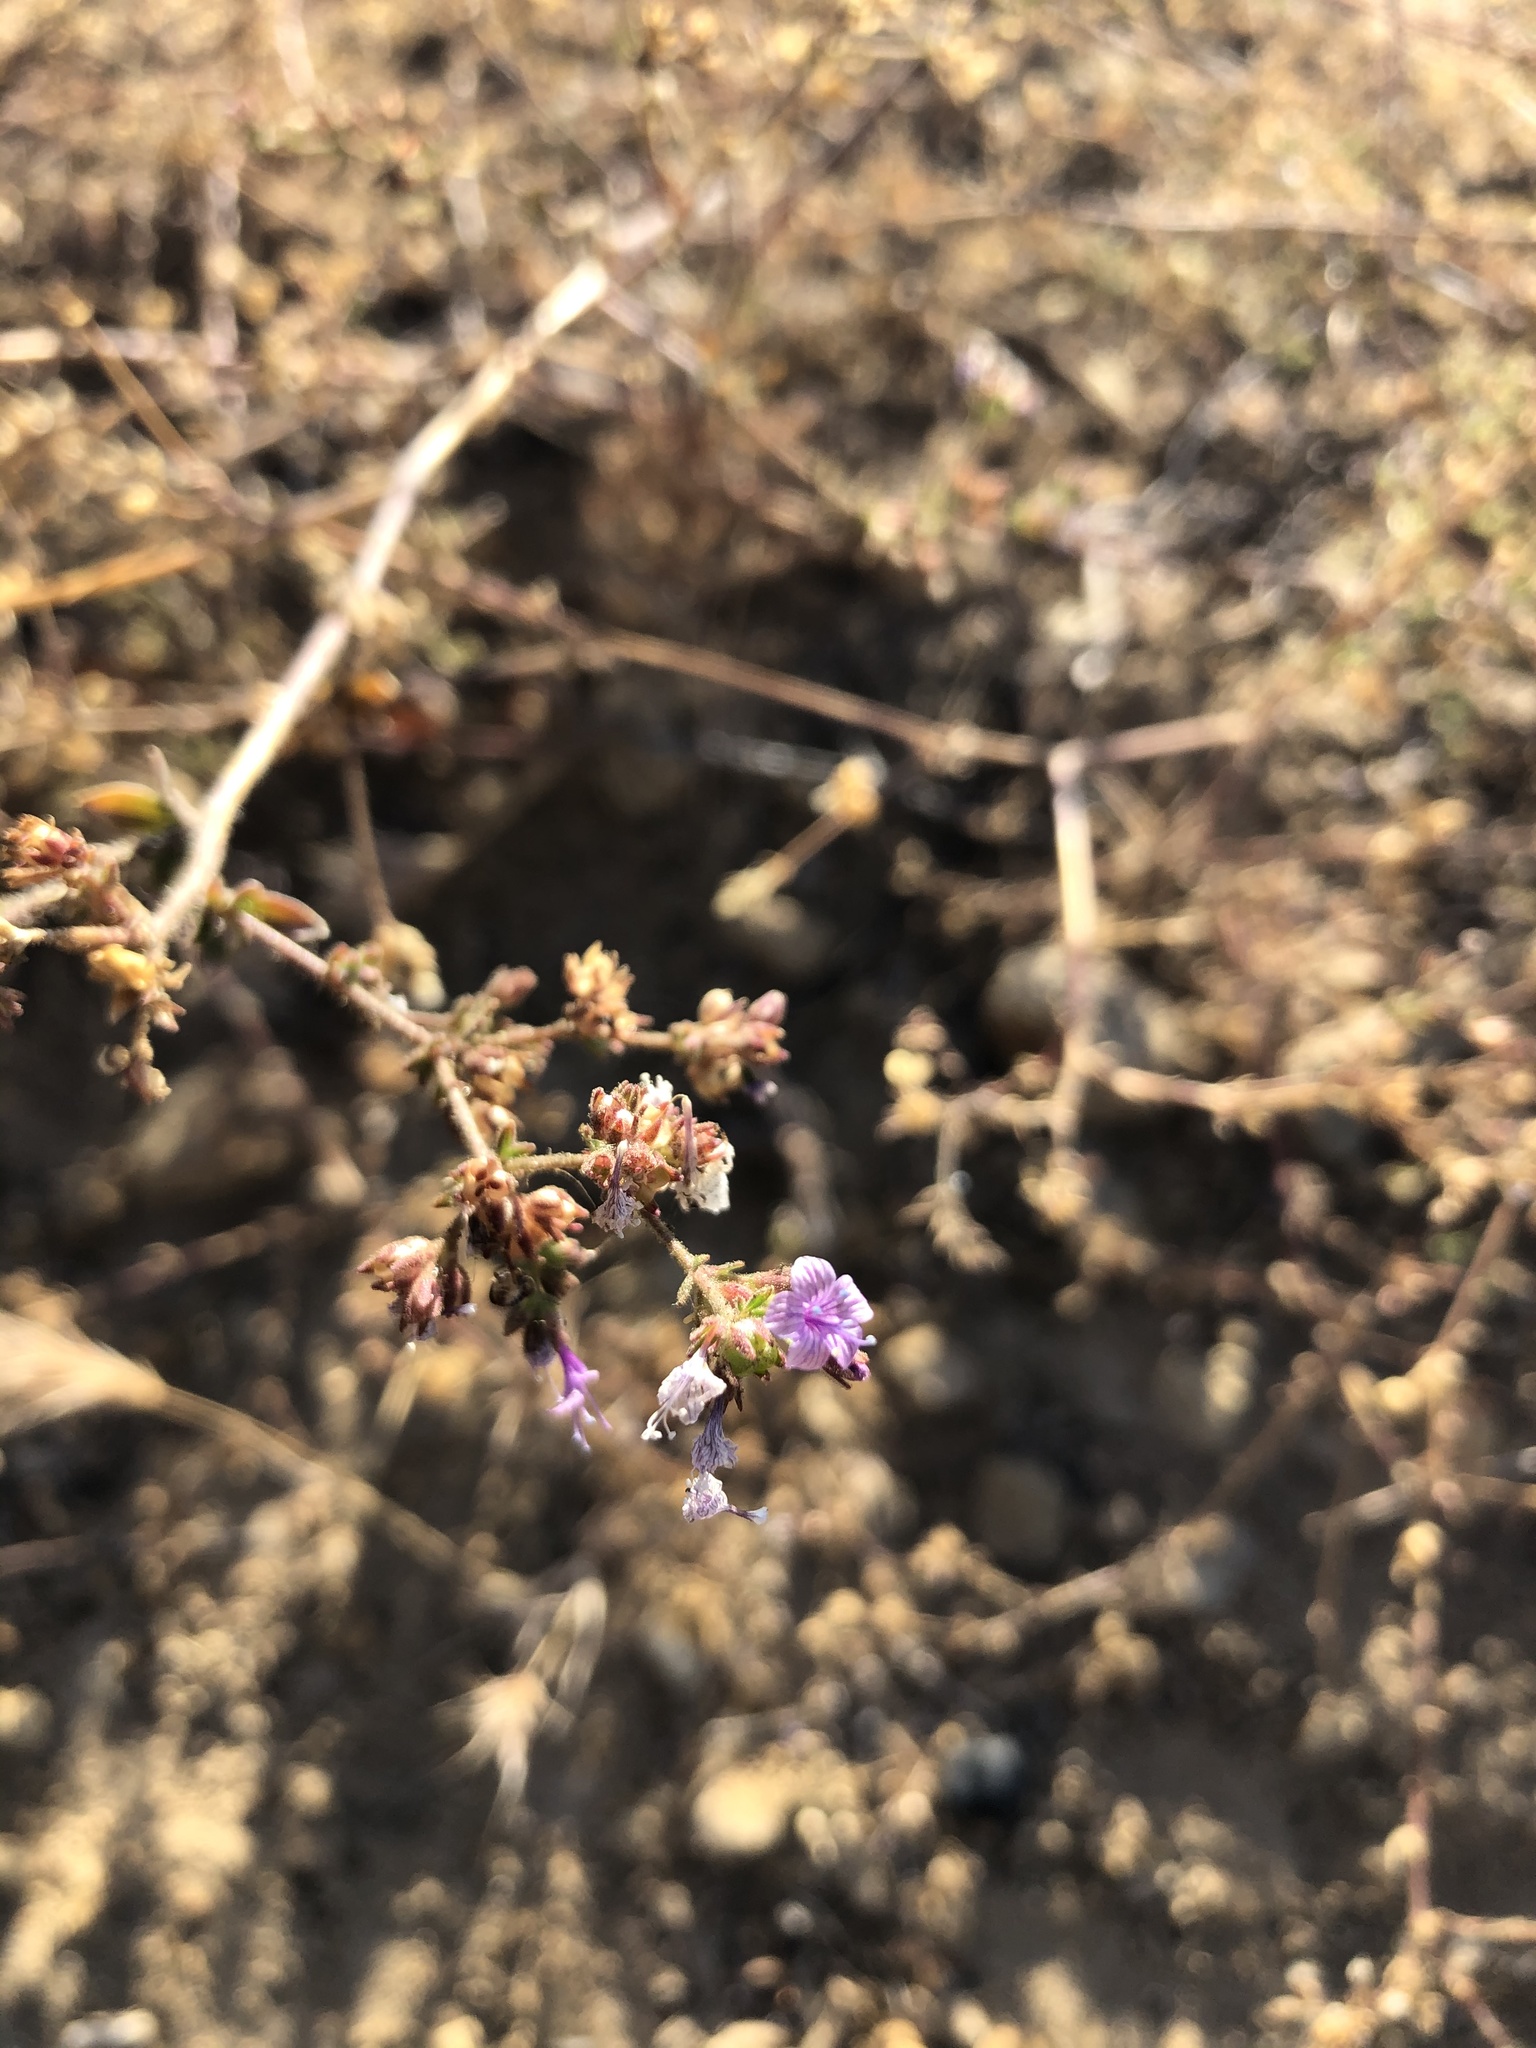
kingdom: Plantae
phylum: Tracheophyta
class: Magnoliopsida
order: Ericales
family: Polemoniaceae
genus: Allophyllum
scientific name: Allophyllum glutinosum
